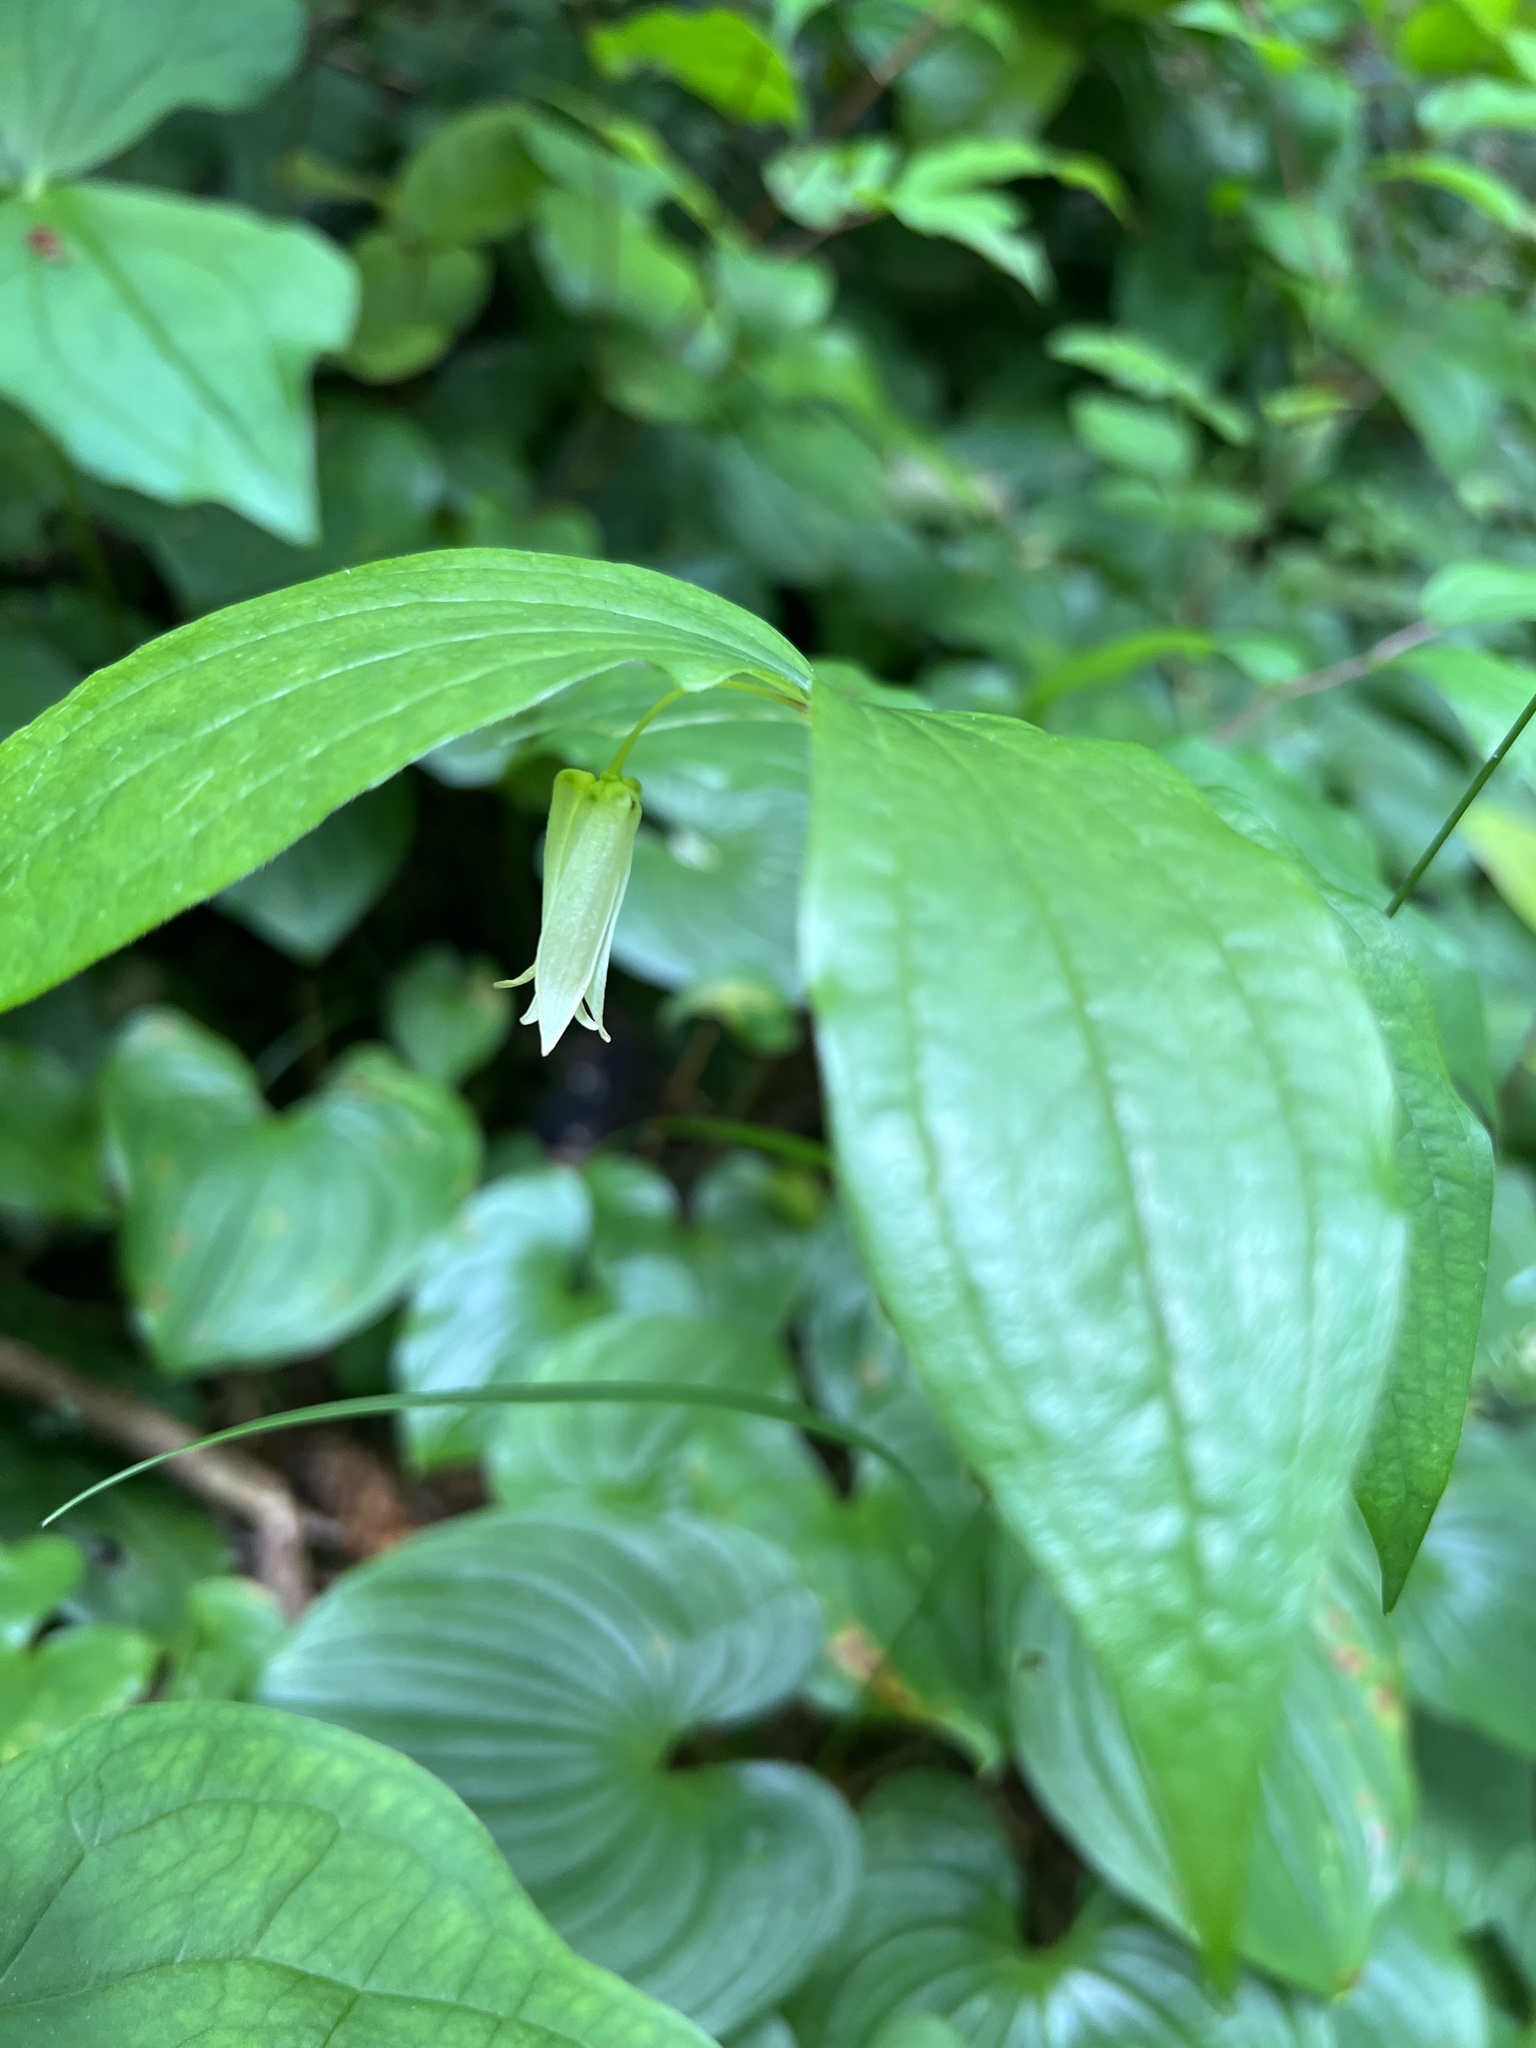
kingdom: Plantae
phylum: Tracheophyta
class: Liliopsida
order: Liliales
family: Liliaceae
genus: Prosartes
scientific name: Prosartes smithii
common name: Fairy-lantern
